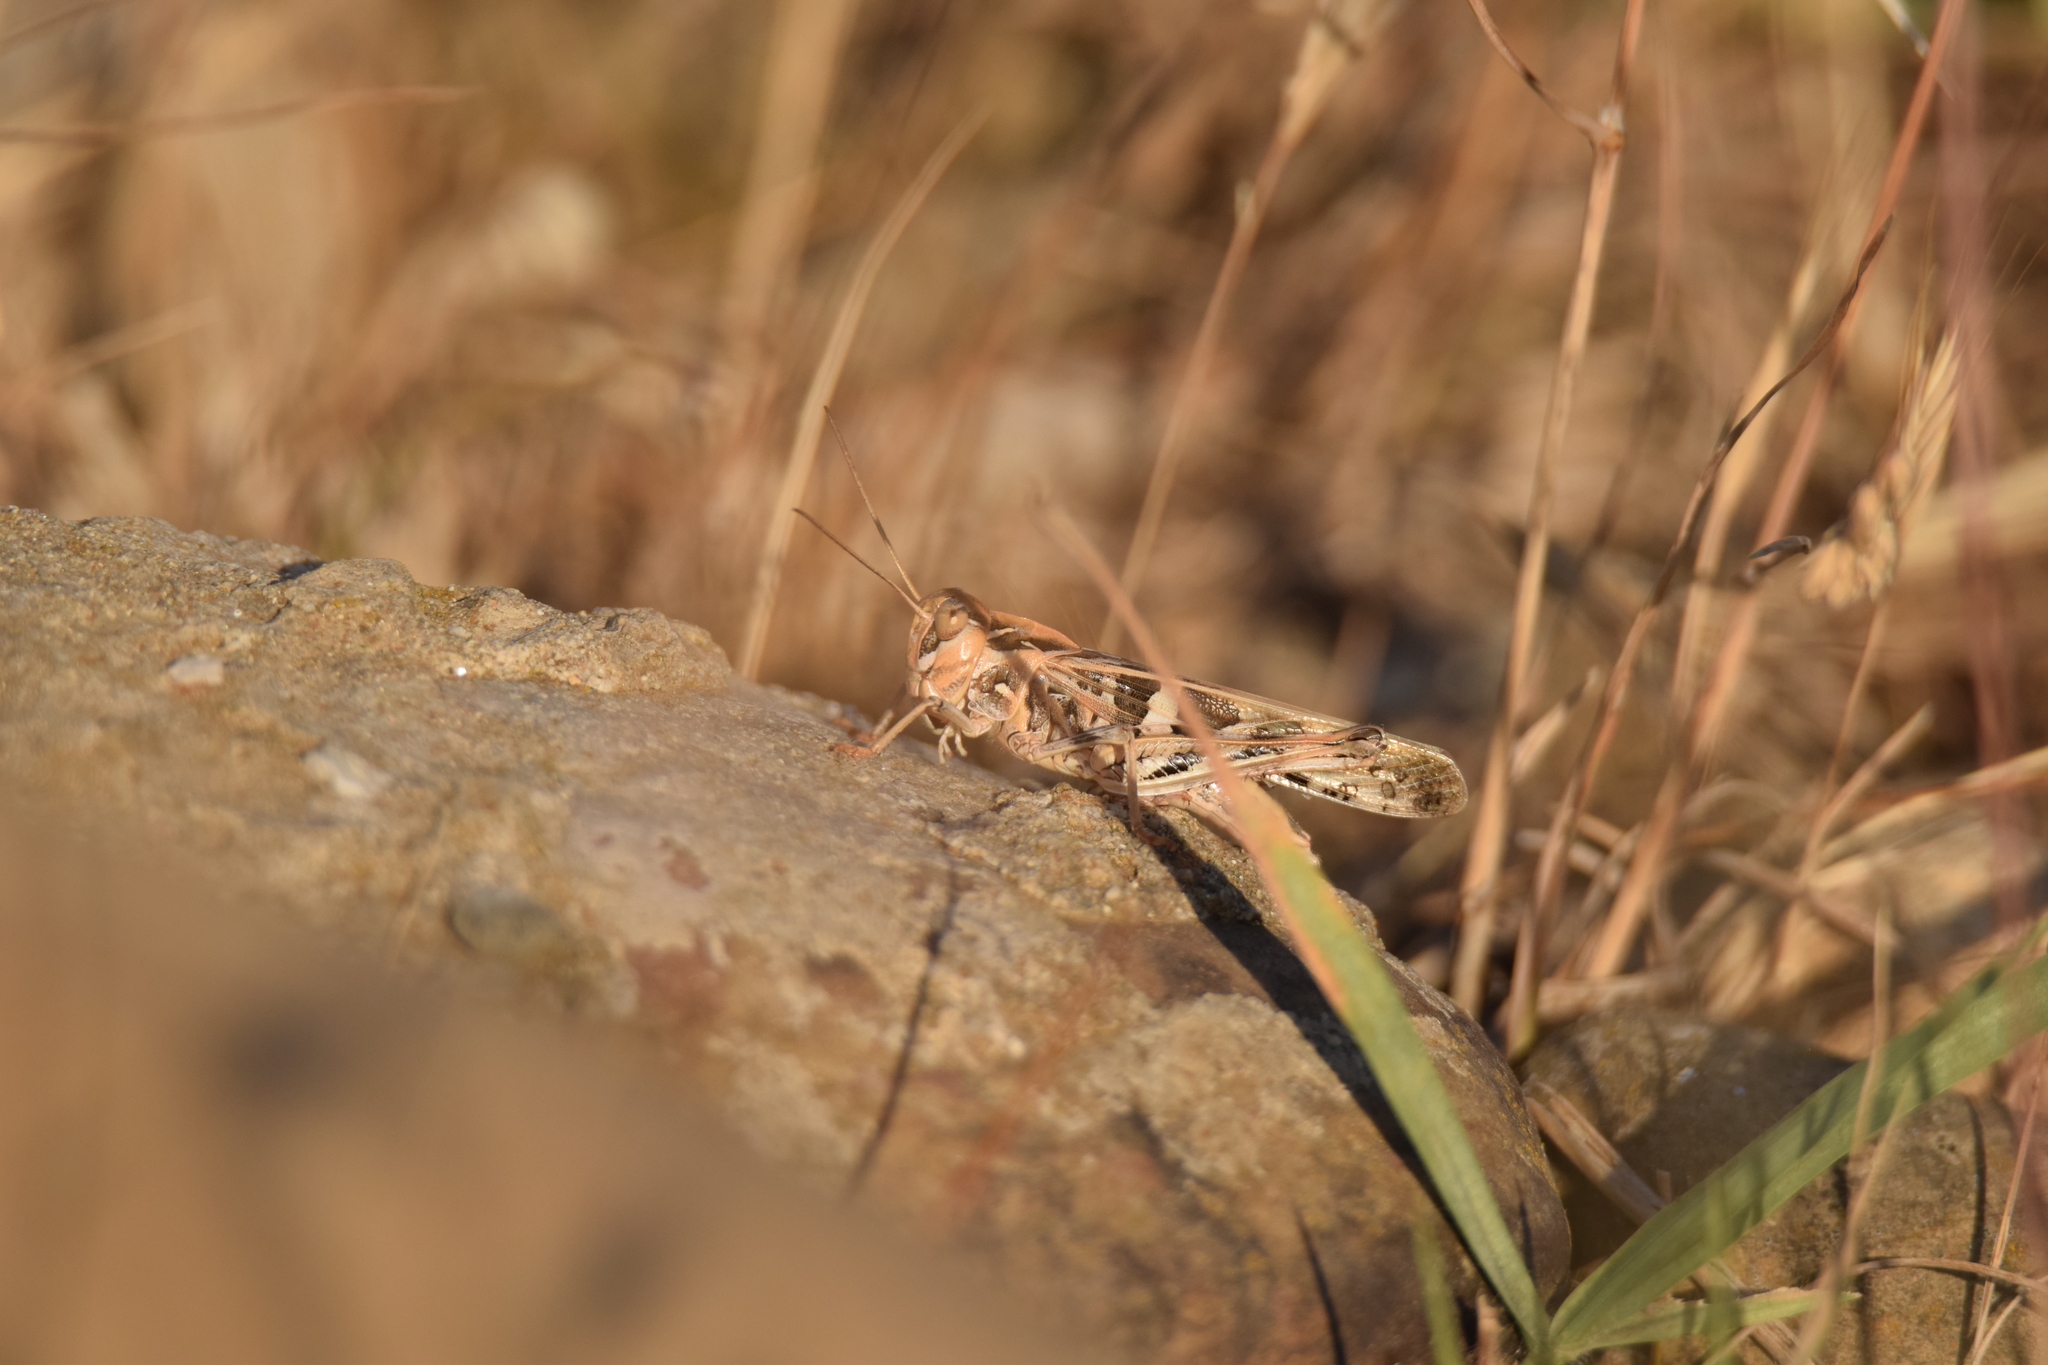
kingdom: Animalia
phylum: Arthropoda
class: Insecta
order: Orthoptera
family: Acrididae
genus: Oedaleus
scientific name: Oedaleus decorus
